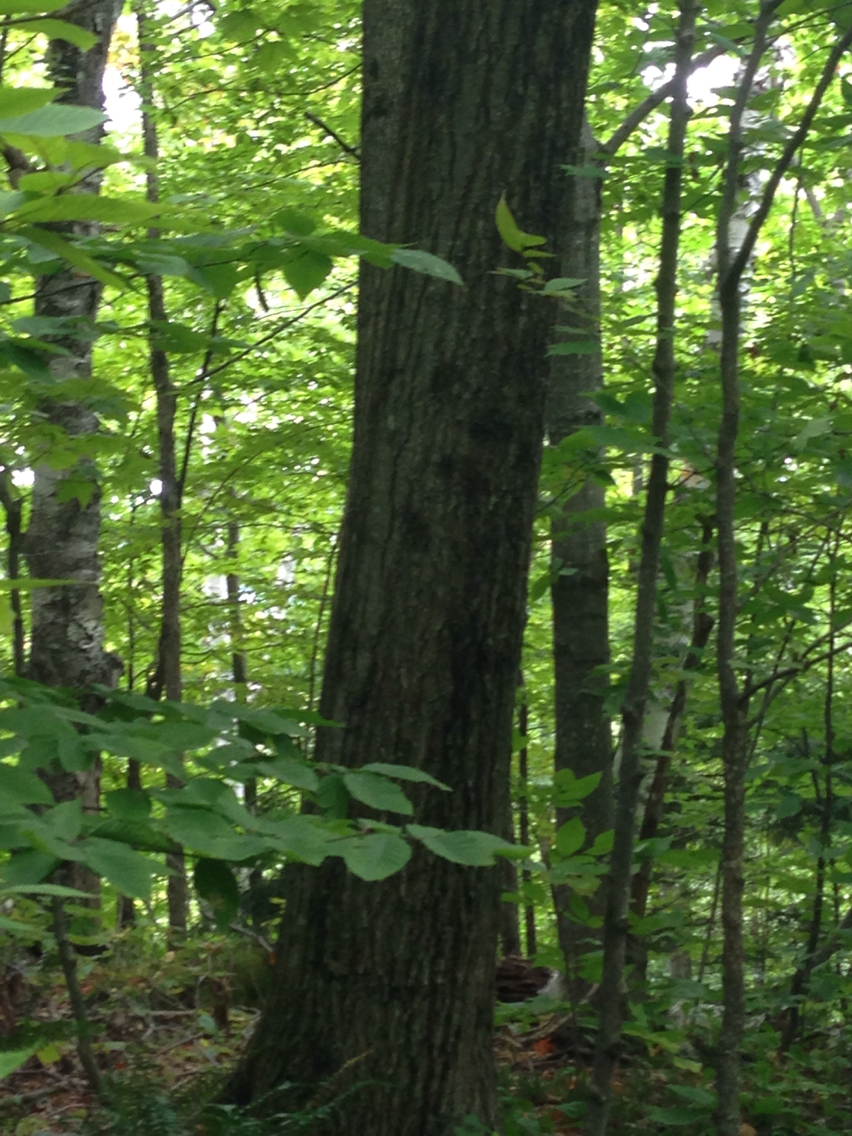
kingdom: Plantae
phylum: Tracheophyta
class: Magnoliopsida
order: Fagales
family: Fagaceae
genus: Quercus
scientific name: Quercus rubra
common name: Red oak
